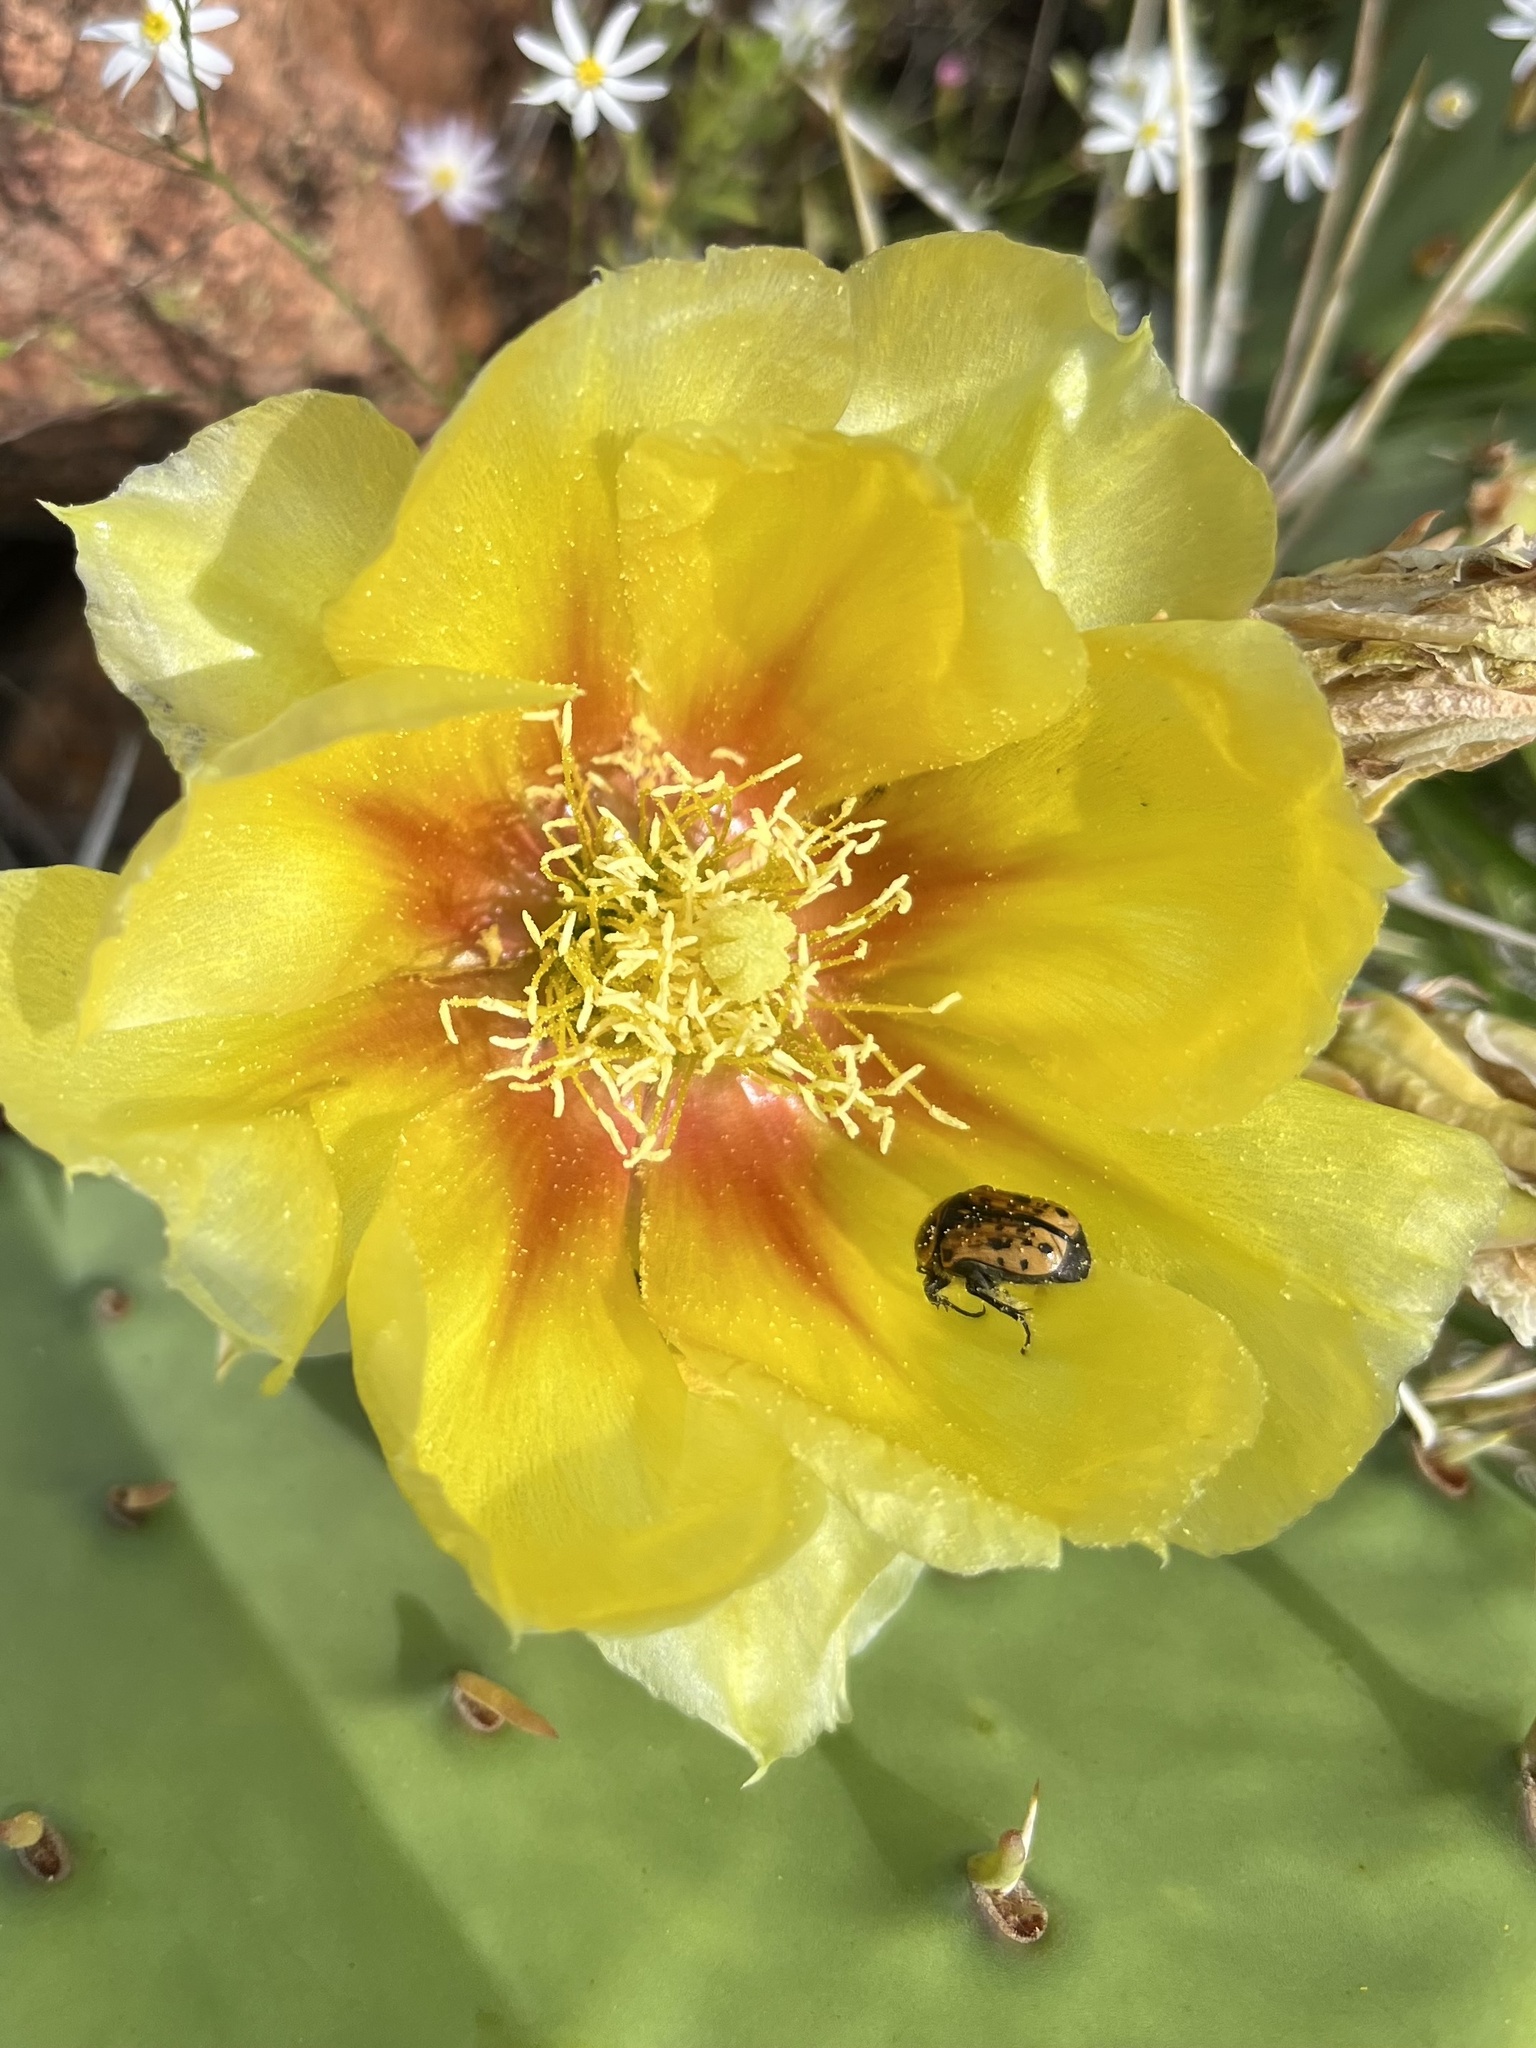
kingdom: Animalia
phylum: Arthropoda
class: Insecta
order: Coleoptera
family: Scarabaeidae
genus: Euphoria
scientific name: Euphoria kernii
